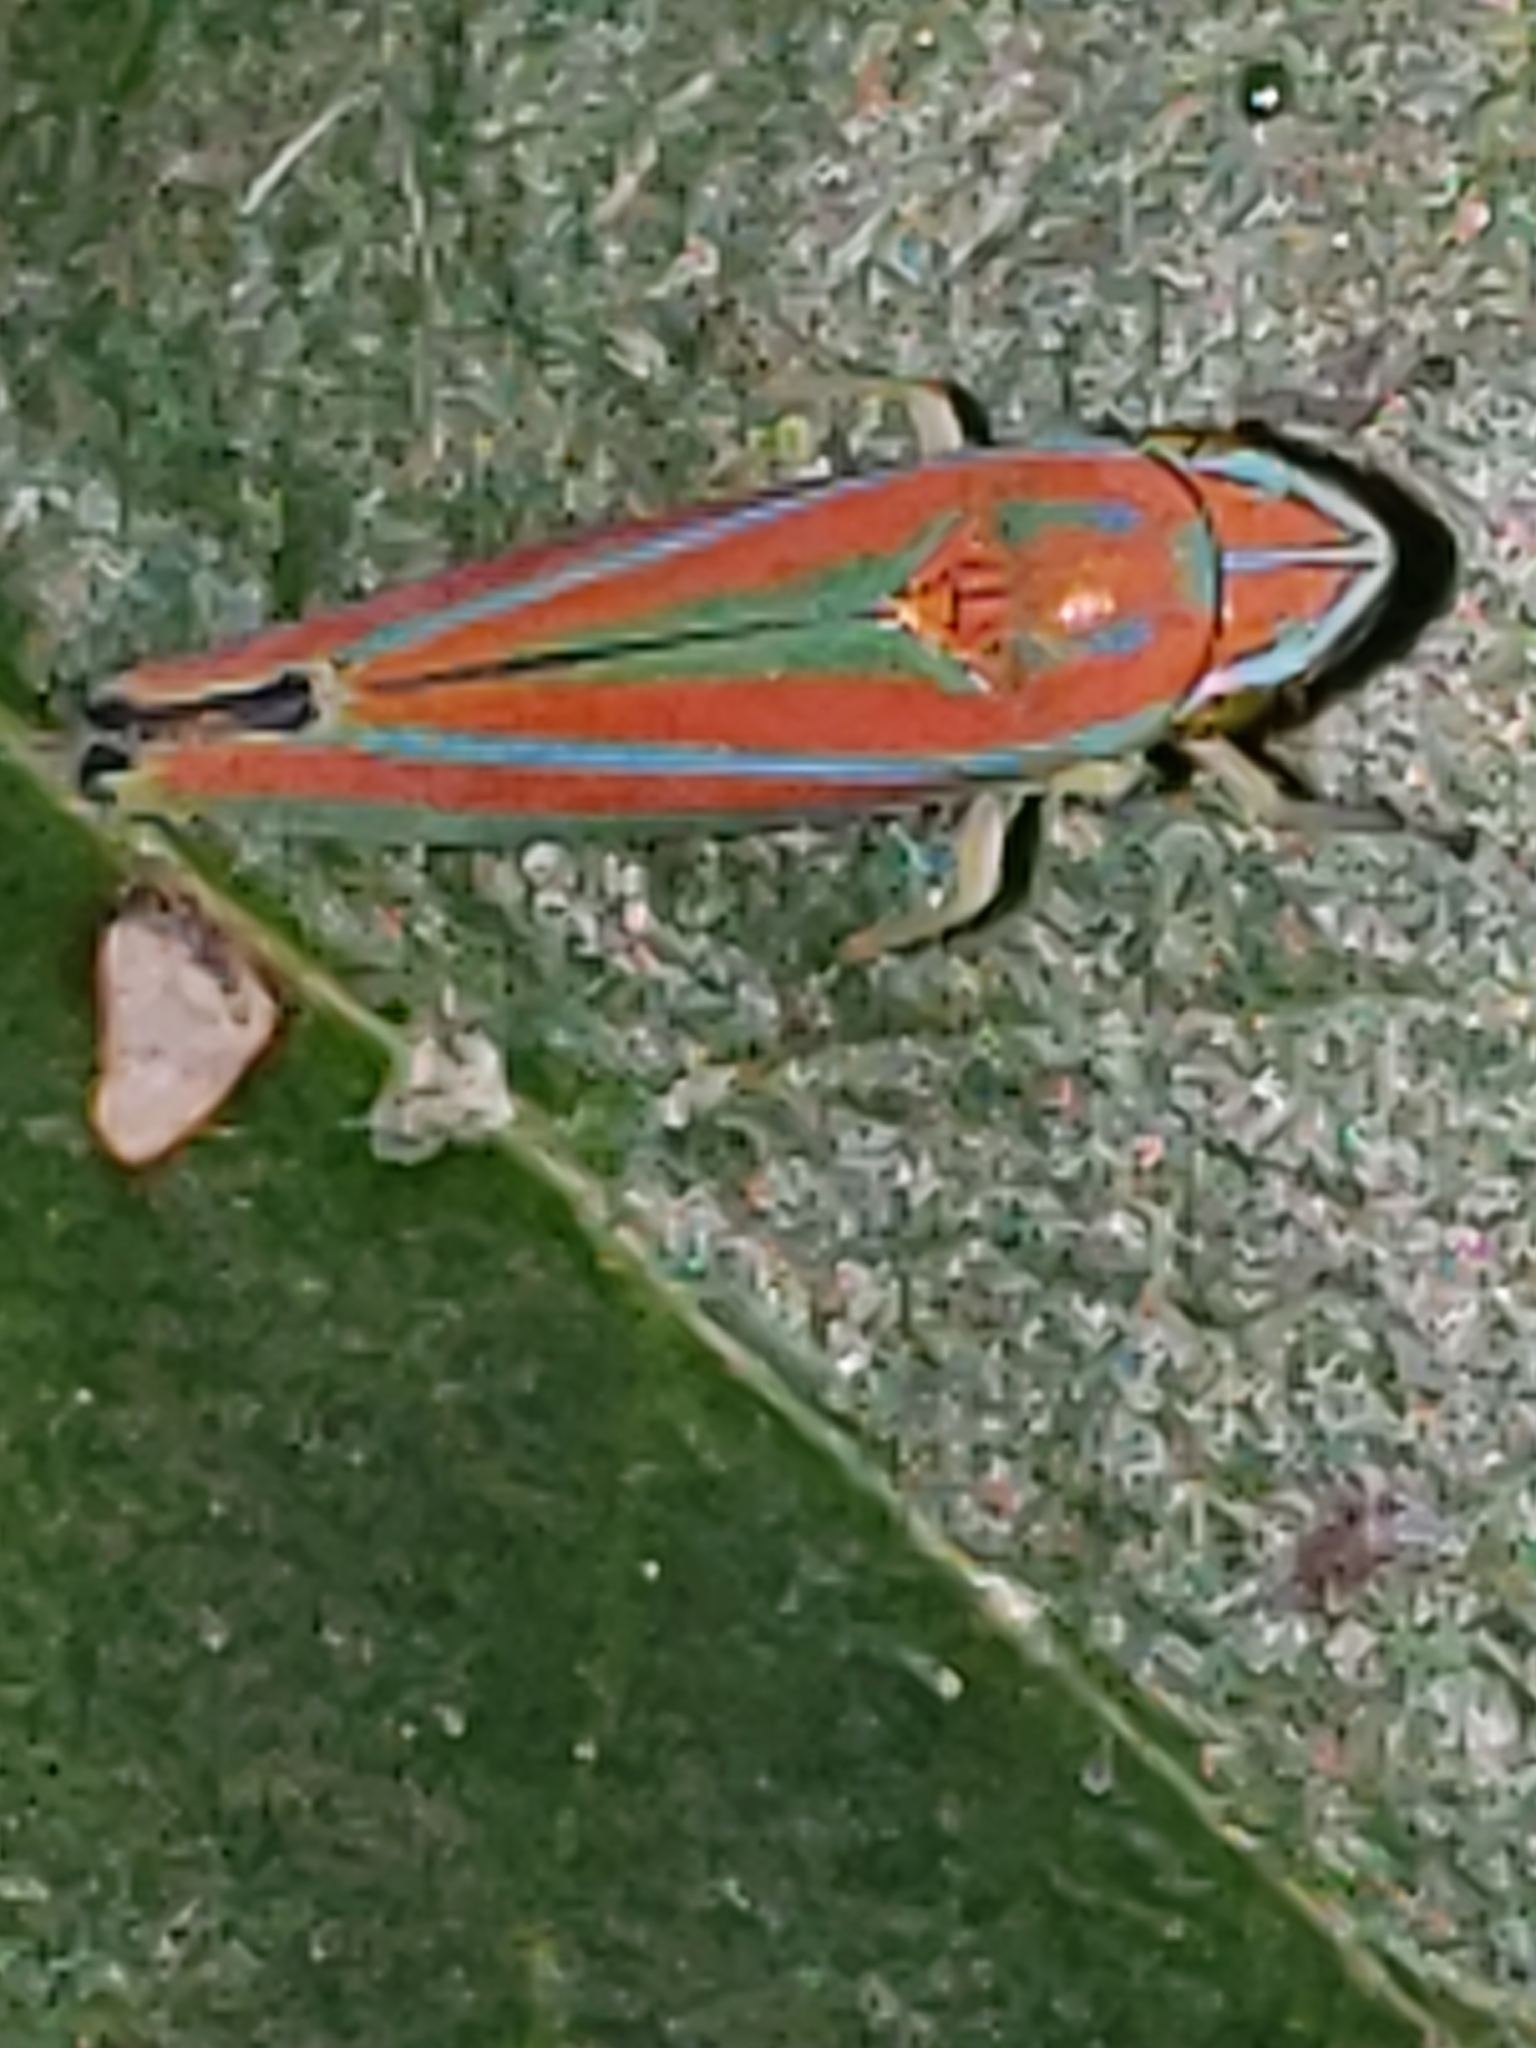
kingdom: Animalia
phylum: Arthropoda
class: Insecta
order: Hemiptera
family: Cicadellidae
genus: Graphocephala
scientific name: Graphocephala versuta
